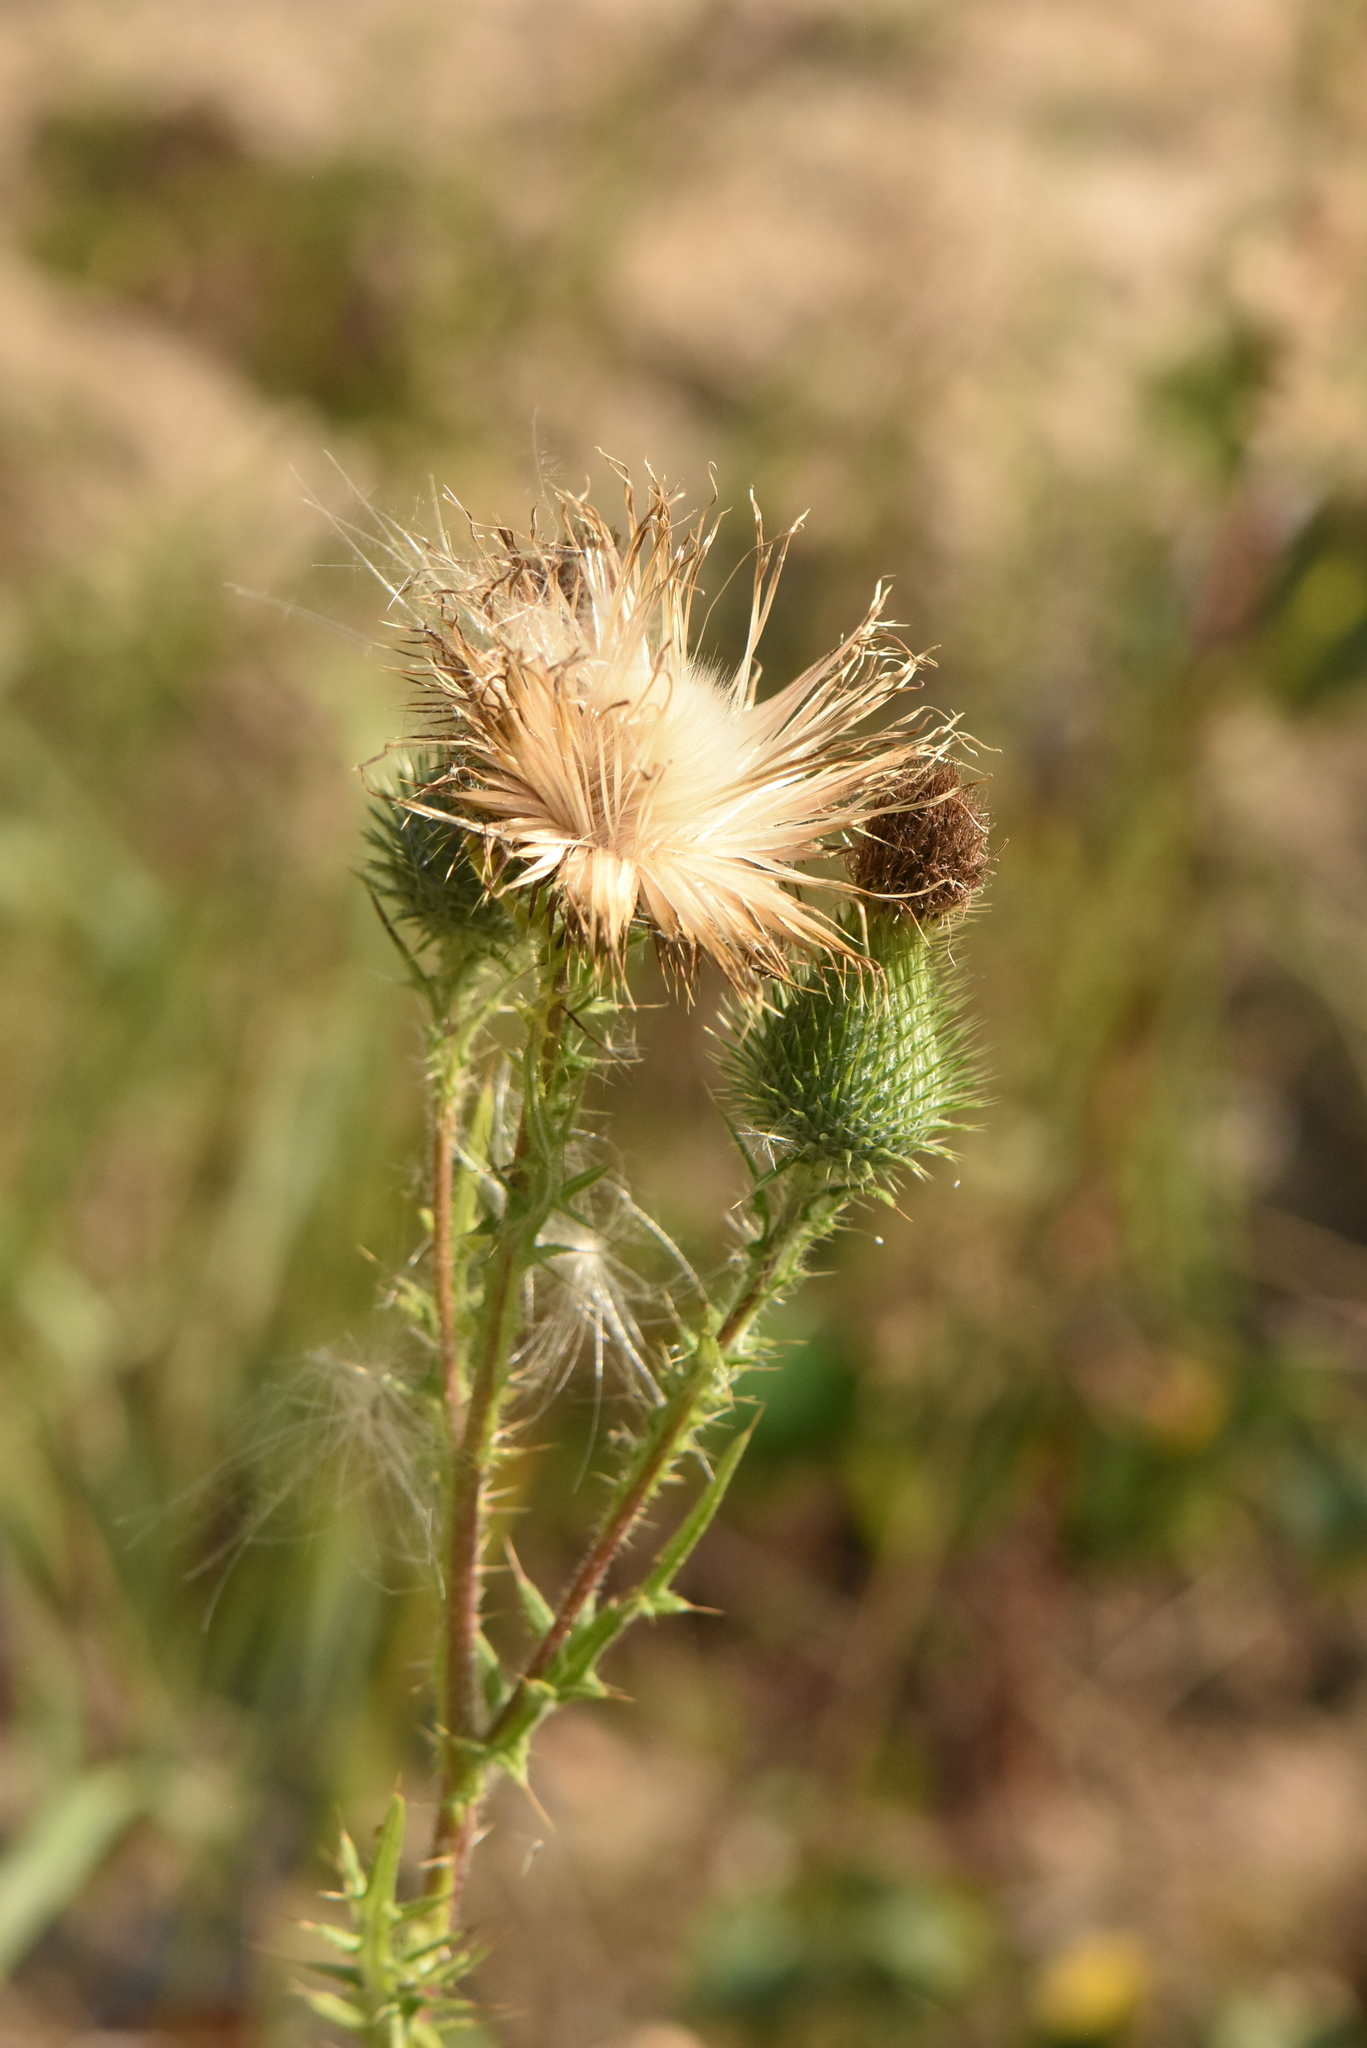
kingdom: Plantae
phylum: Tracheophyta
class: Magnoliopsida
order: Asterales
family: Asteraceae
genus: Cirsium
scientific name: Cirsium vulgare
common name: Bull thistle
